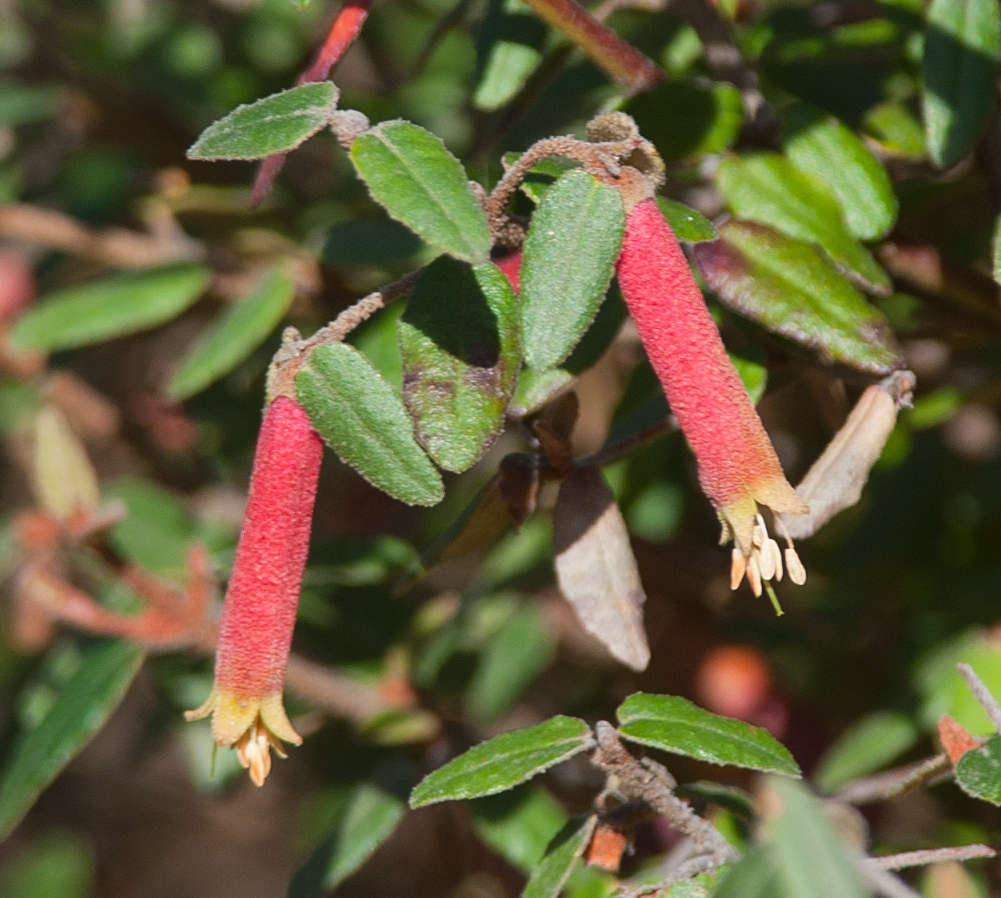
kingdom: Plantae
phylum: Tracheophyta
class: Magnoliopsida
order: Sapindales
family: Rutaceae
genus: Correa
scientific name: Correa reflexa
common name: Common correa
